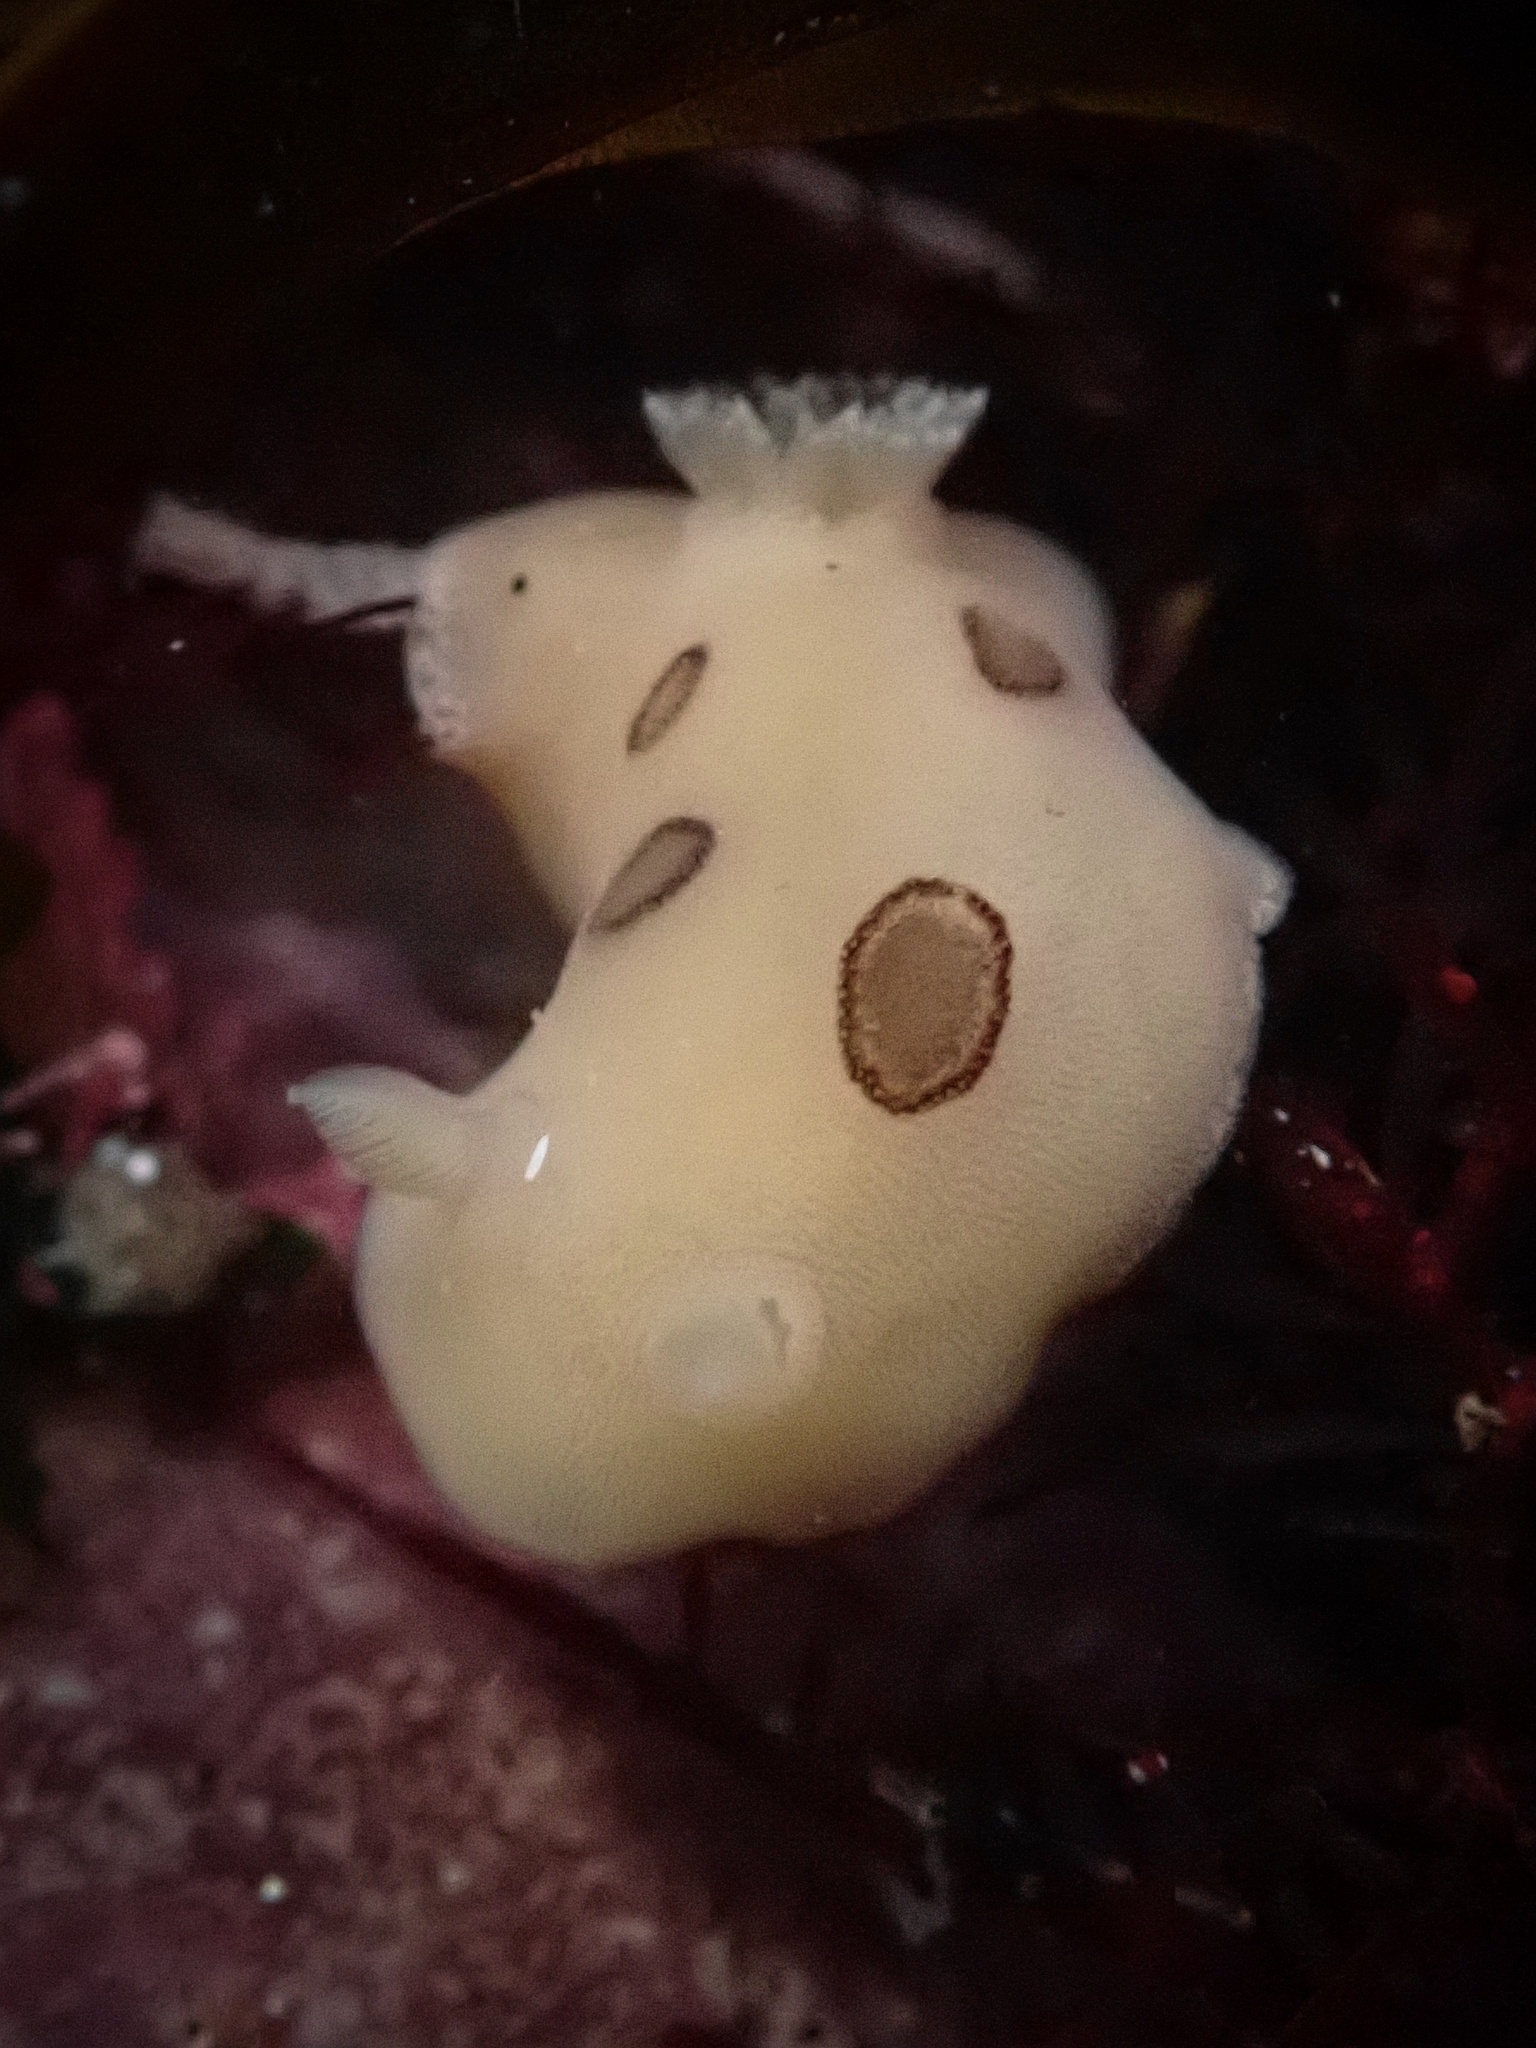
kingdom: Animalia
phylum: Mollusca
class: Gastropoda
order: Nudibranchia
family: Discodorididae
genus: Diaulula
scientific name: Diaulula sandiegensis
